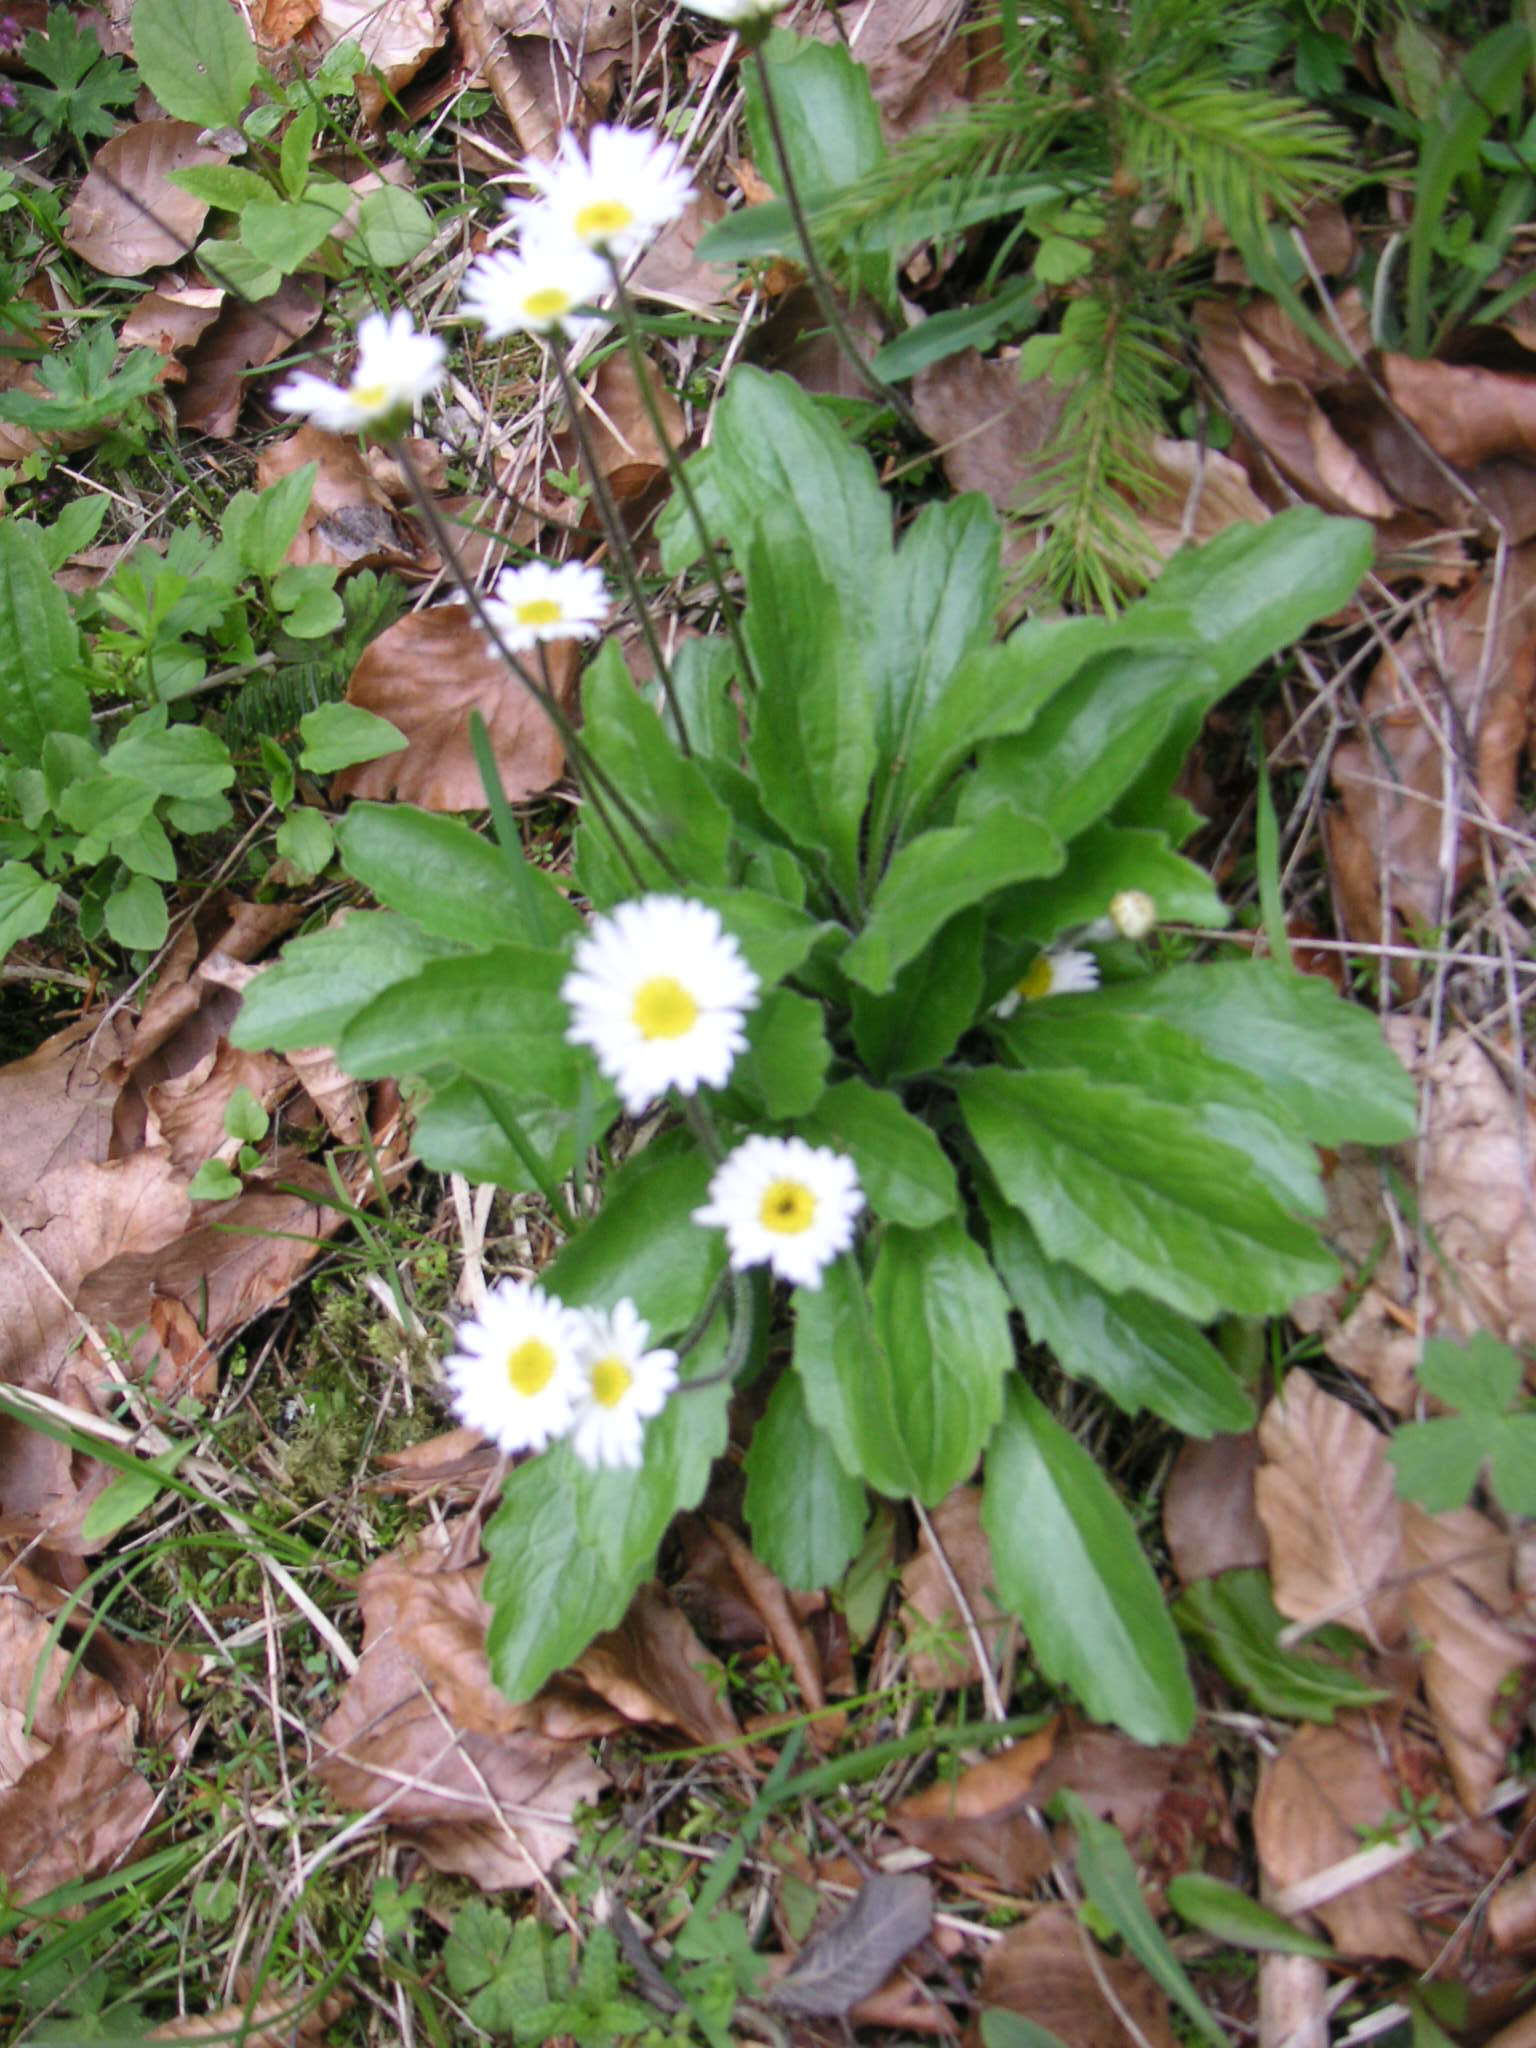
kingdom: Plantae
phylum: Tracheophyta
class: Magnoliopsida
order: Asterales
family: Asteraceae
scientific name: Asteraceae
